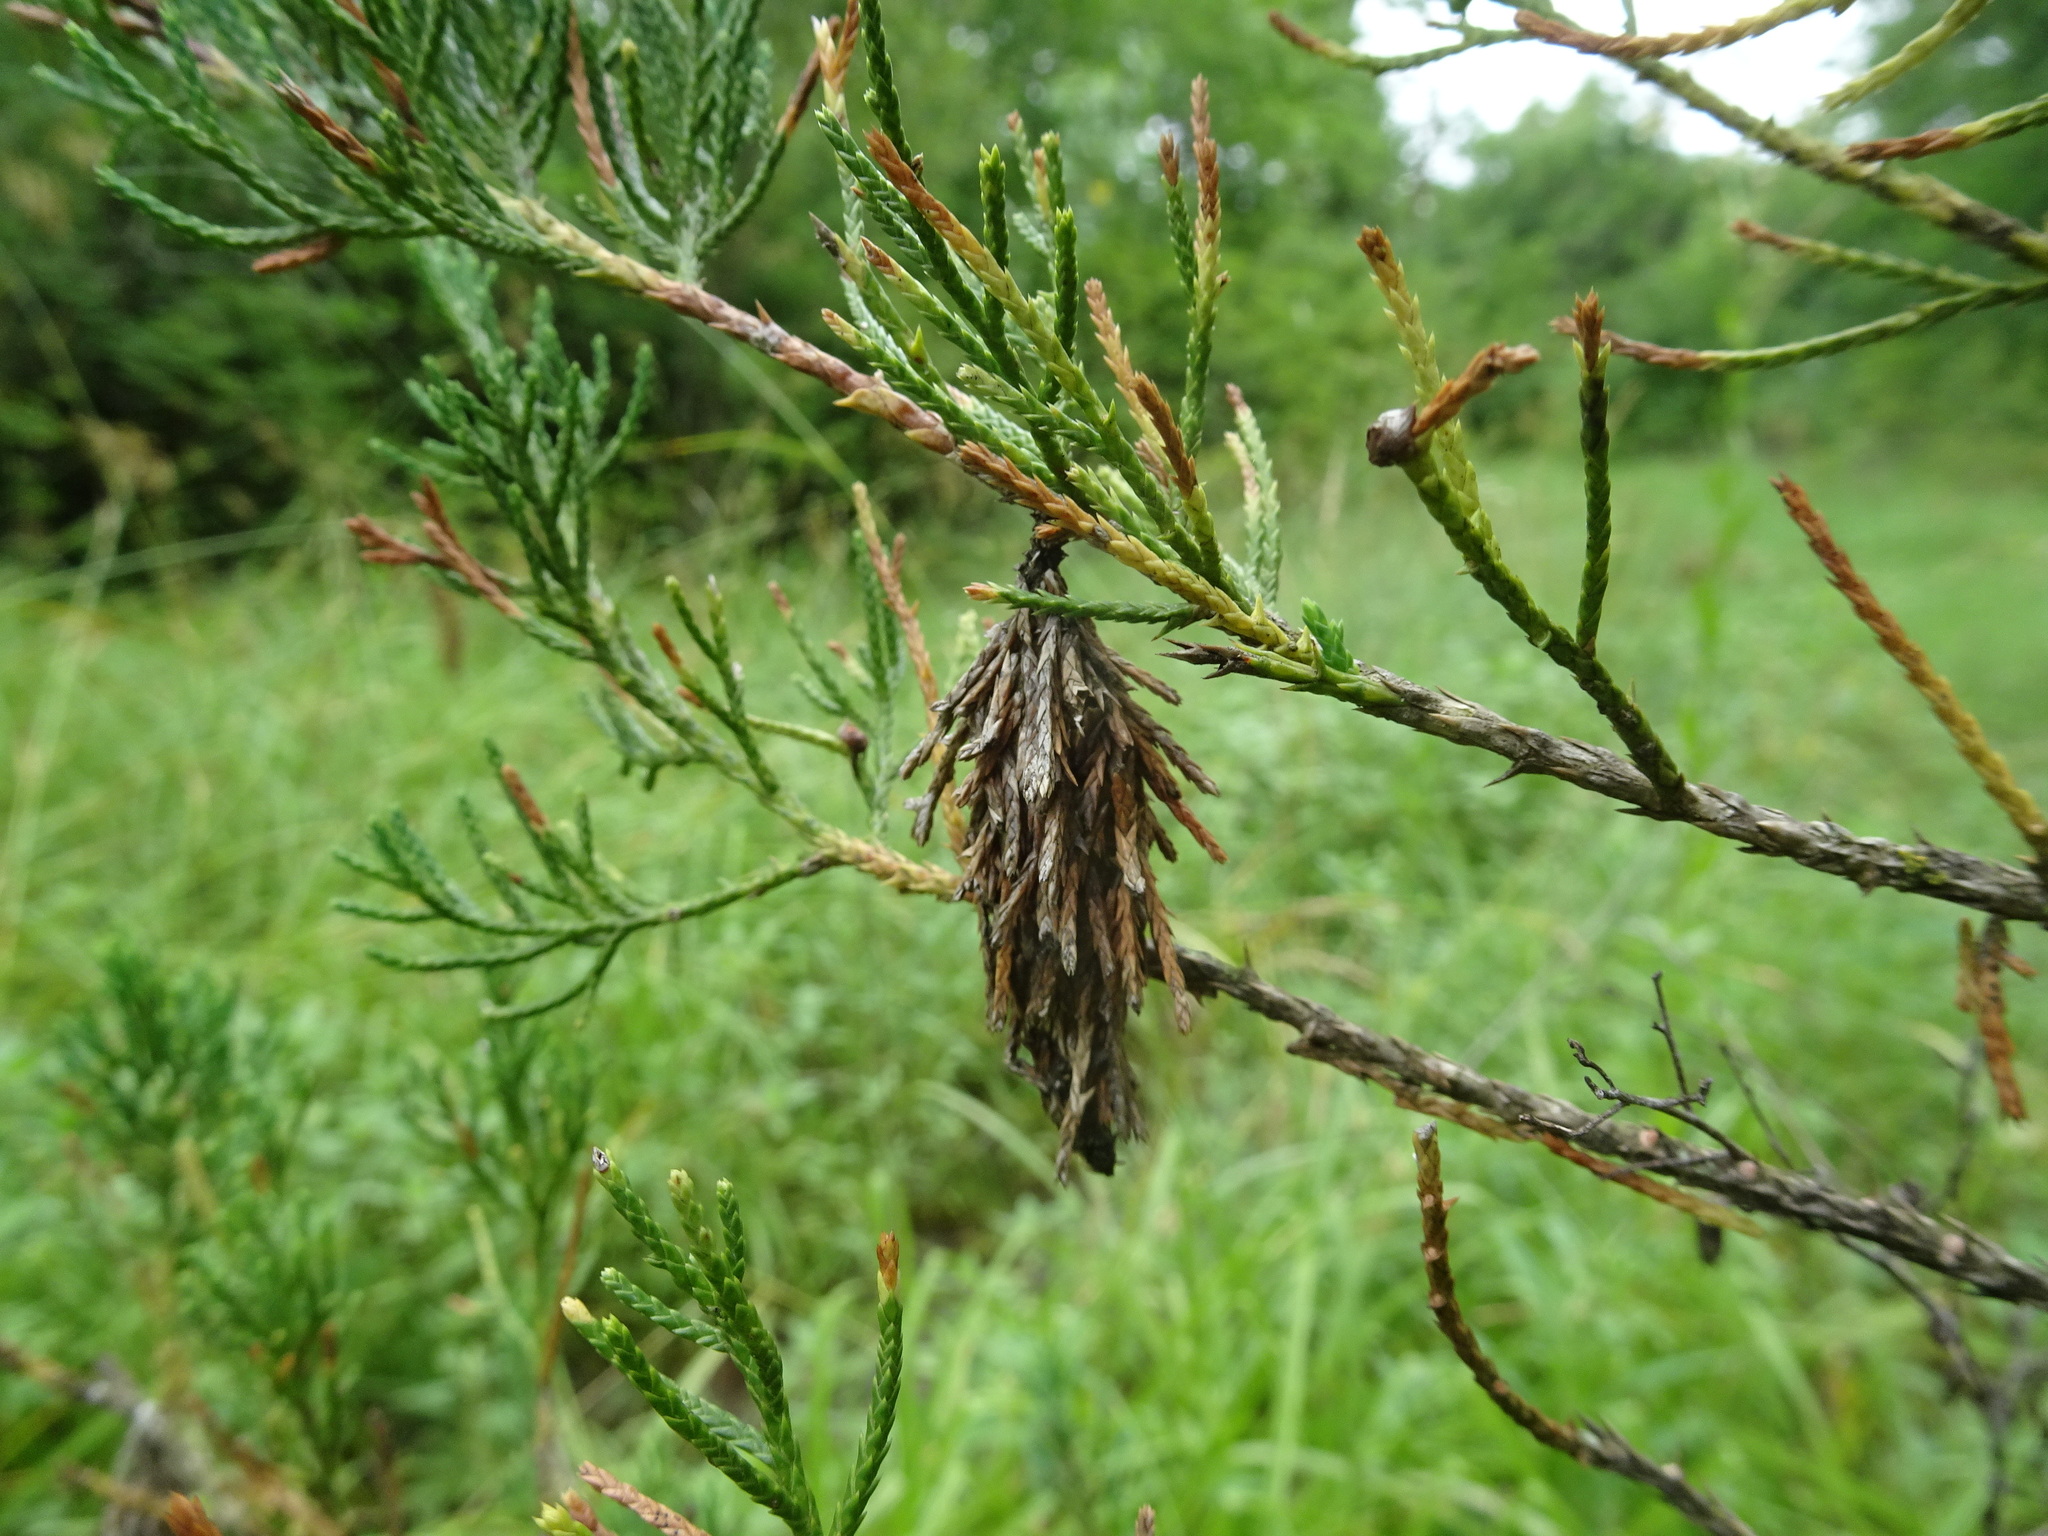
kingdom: Animalia
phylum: Arthropoda
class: Insecta
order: Lepidoptera
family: Psychidae
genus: Thyridopteryx
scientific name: Thyridopteryx ephemeraeformis
